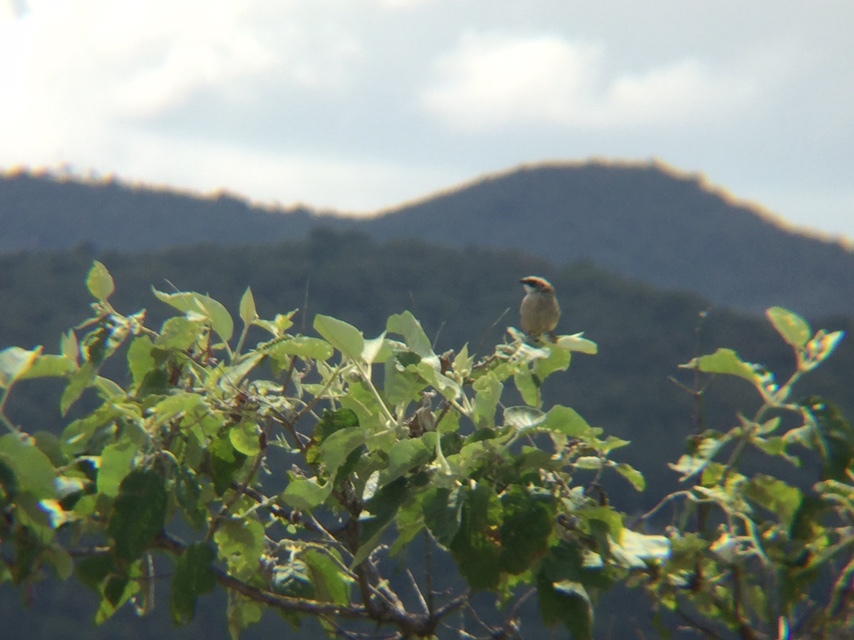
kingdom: Animalia
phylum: Chordata
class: Aves
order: Passeriformes
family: Passerellidae
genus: Oriturus
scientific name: Oriturus superciliosus
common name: Striped sparrow
